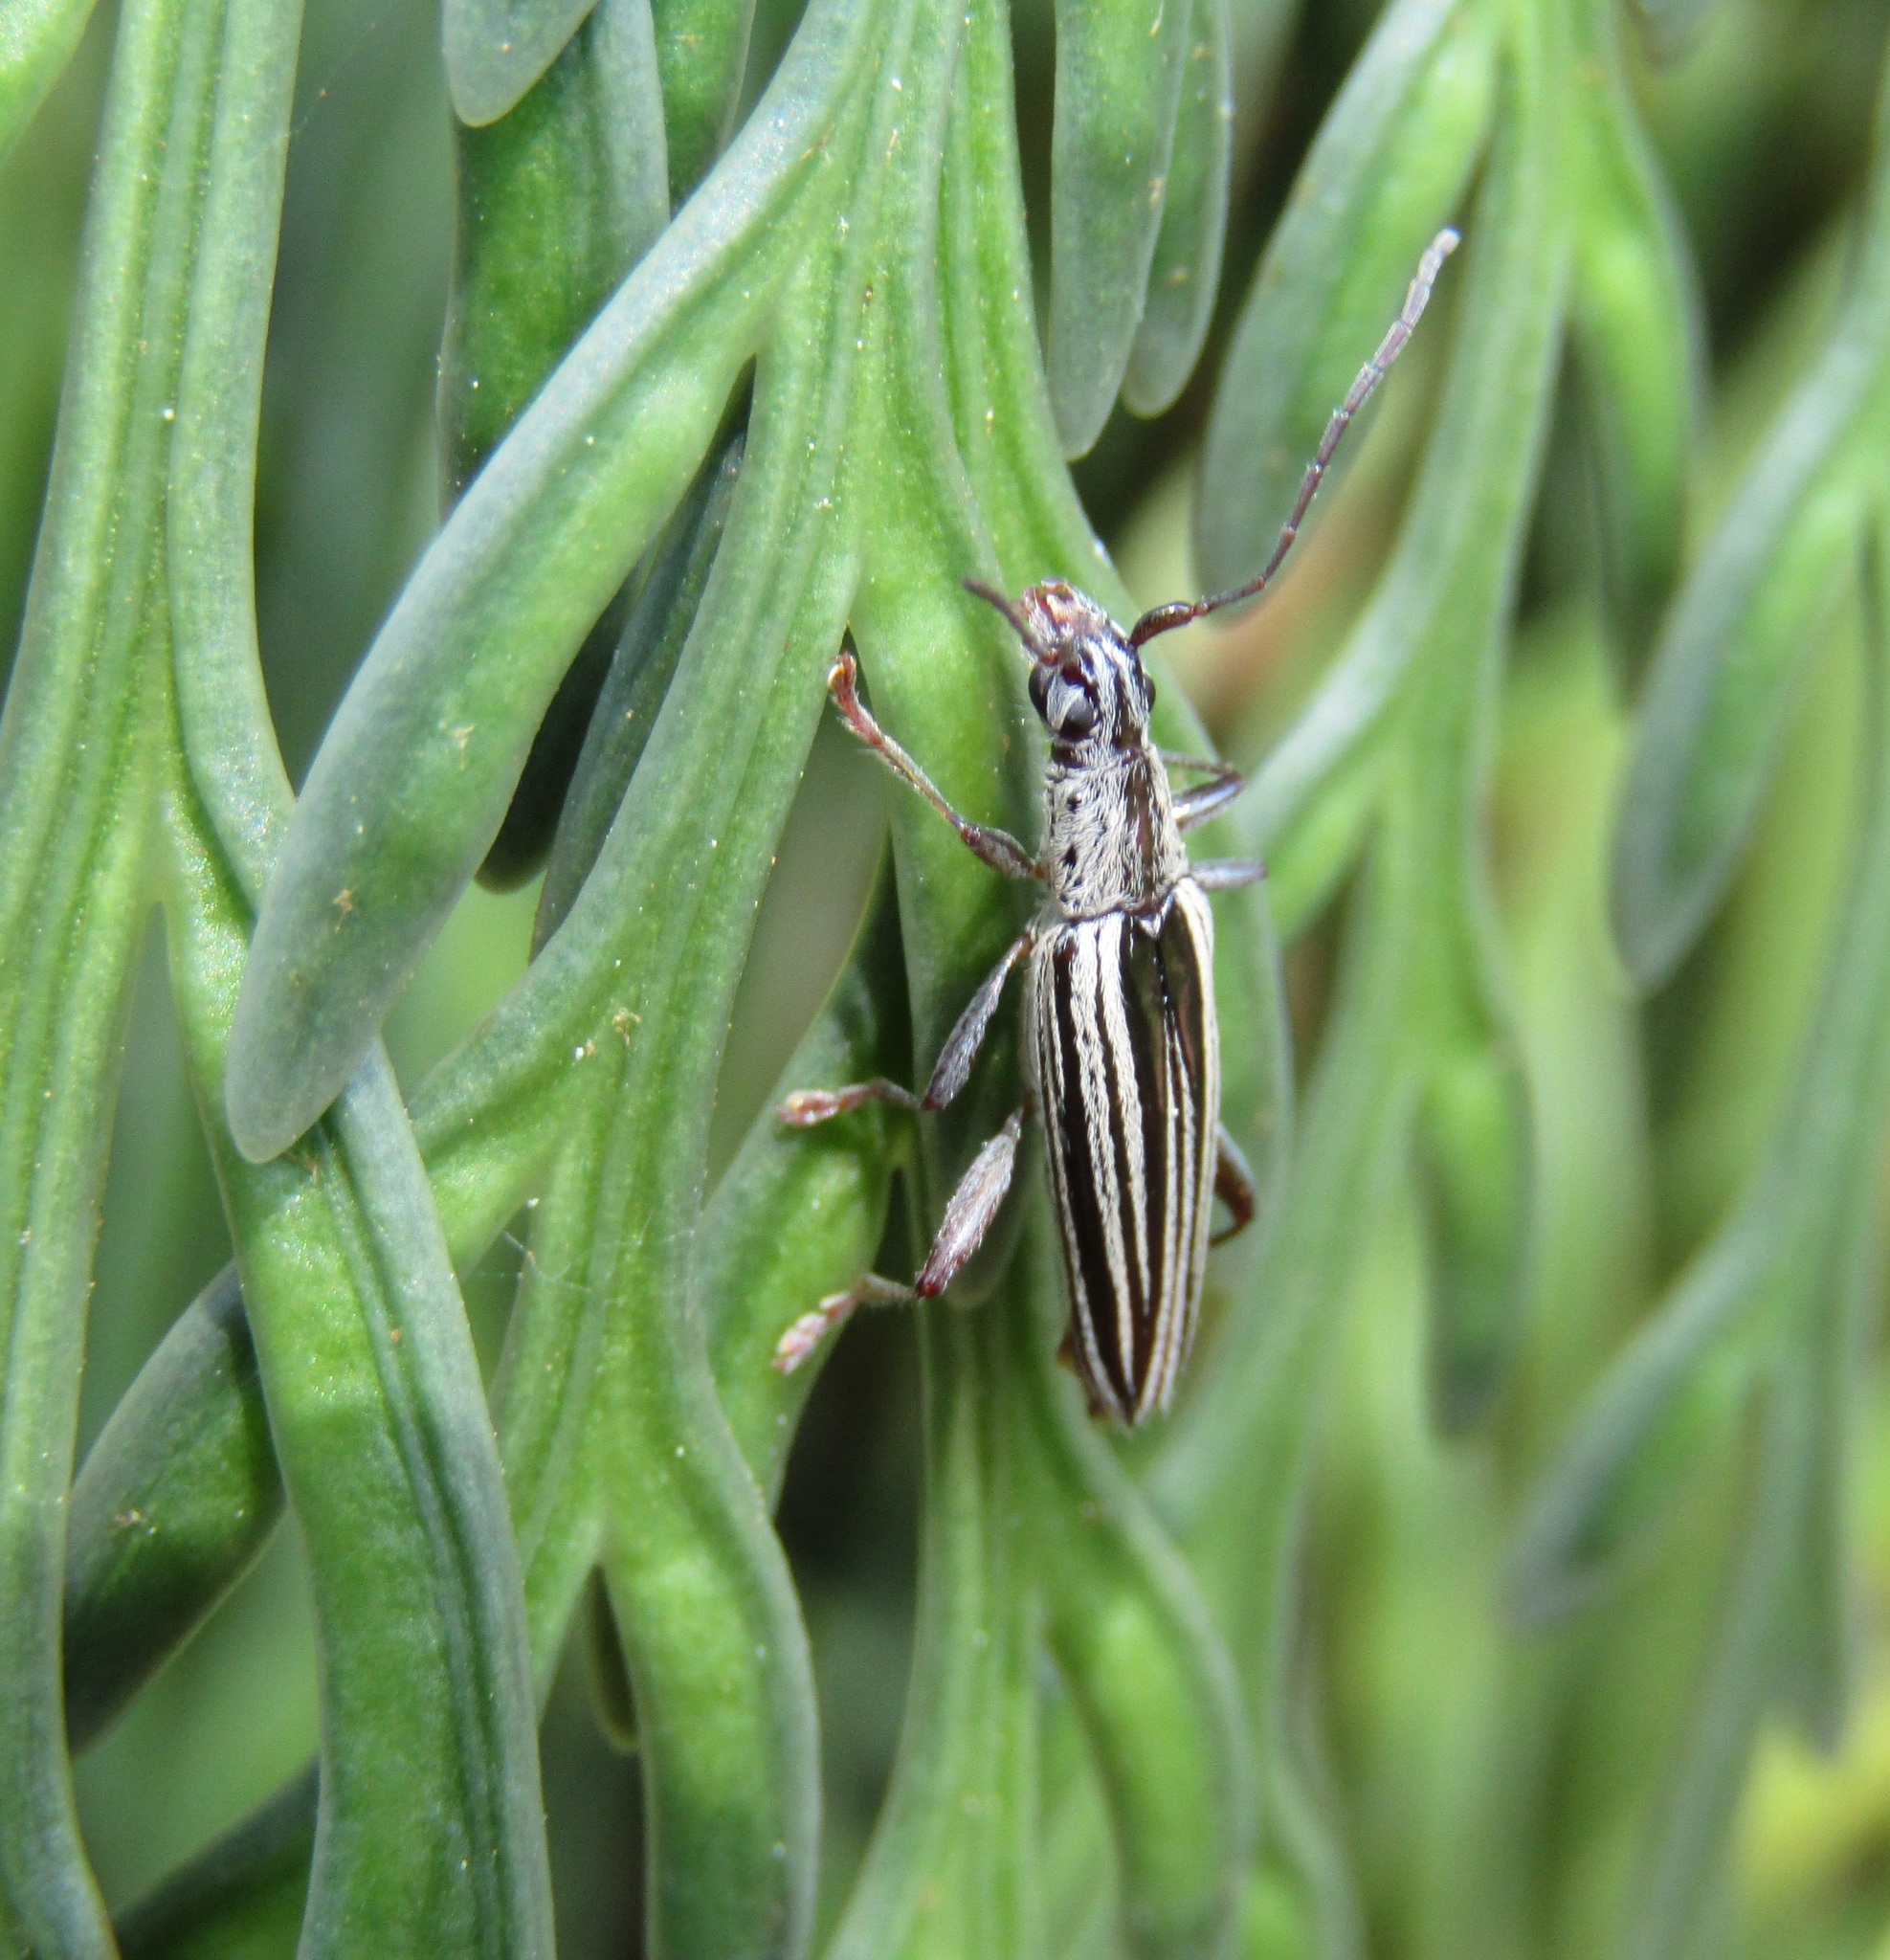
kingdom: Animalia
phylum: Arthropoda
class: Insecta
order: Coleoptera
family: Cerambycidae
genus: Coptomma
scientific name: Coptomma sulcatum
